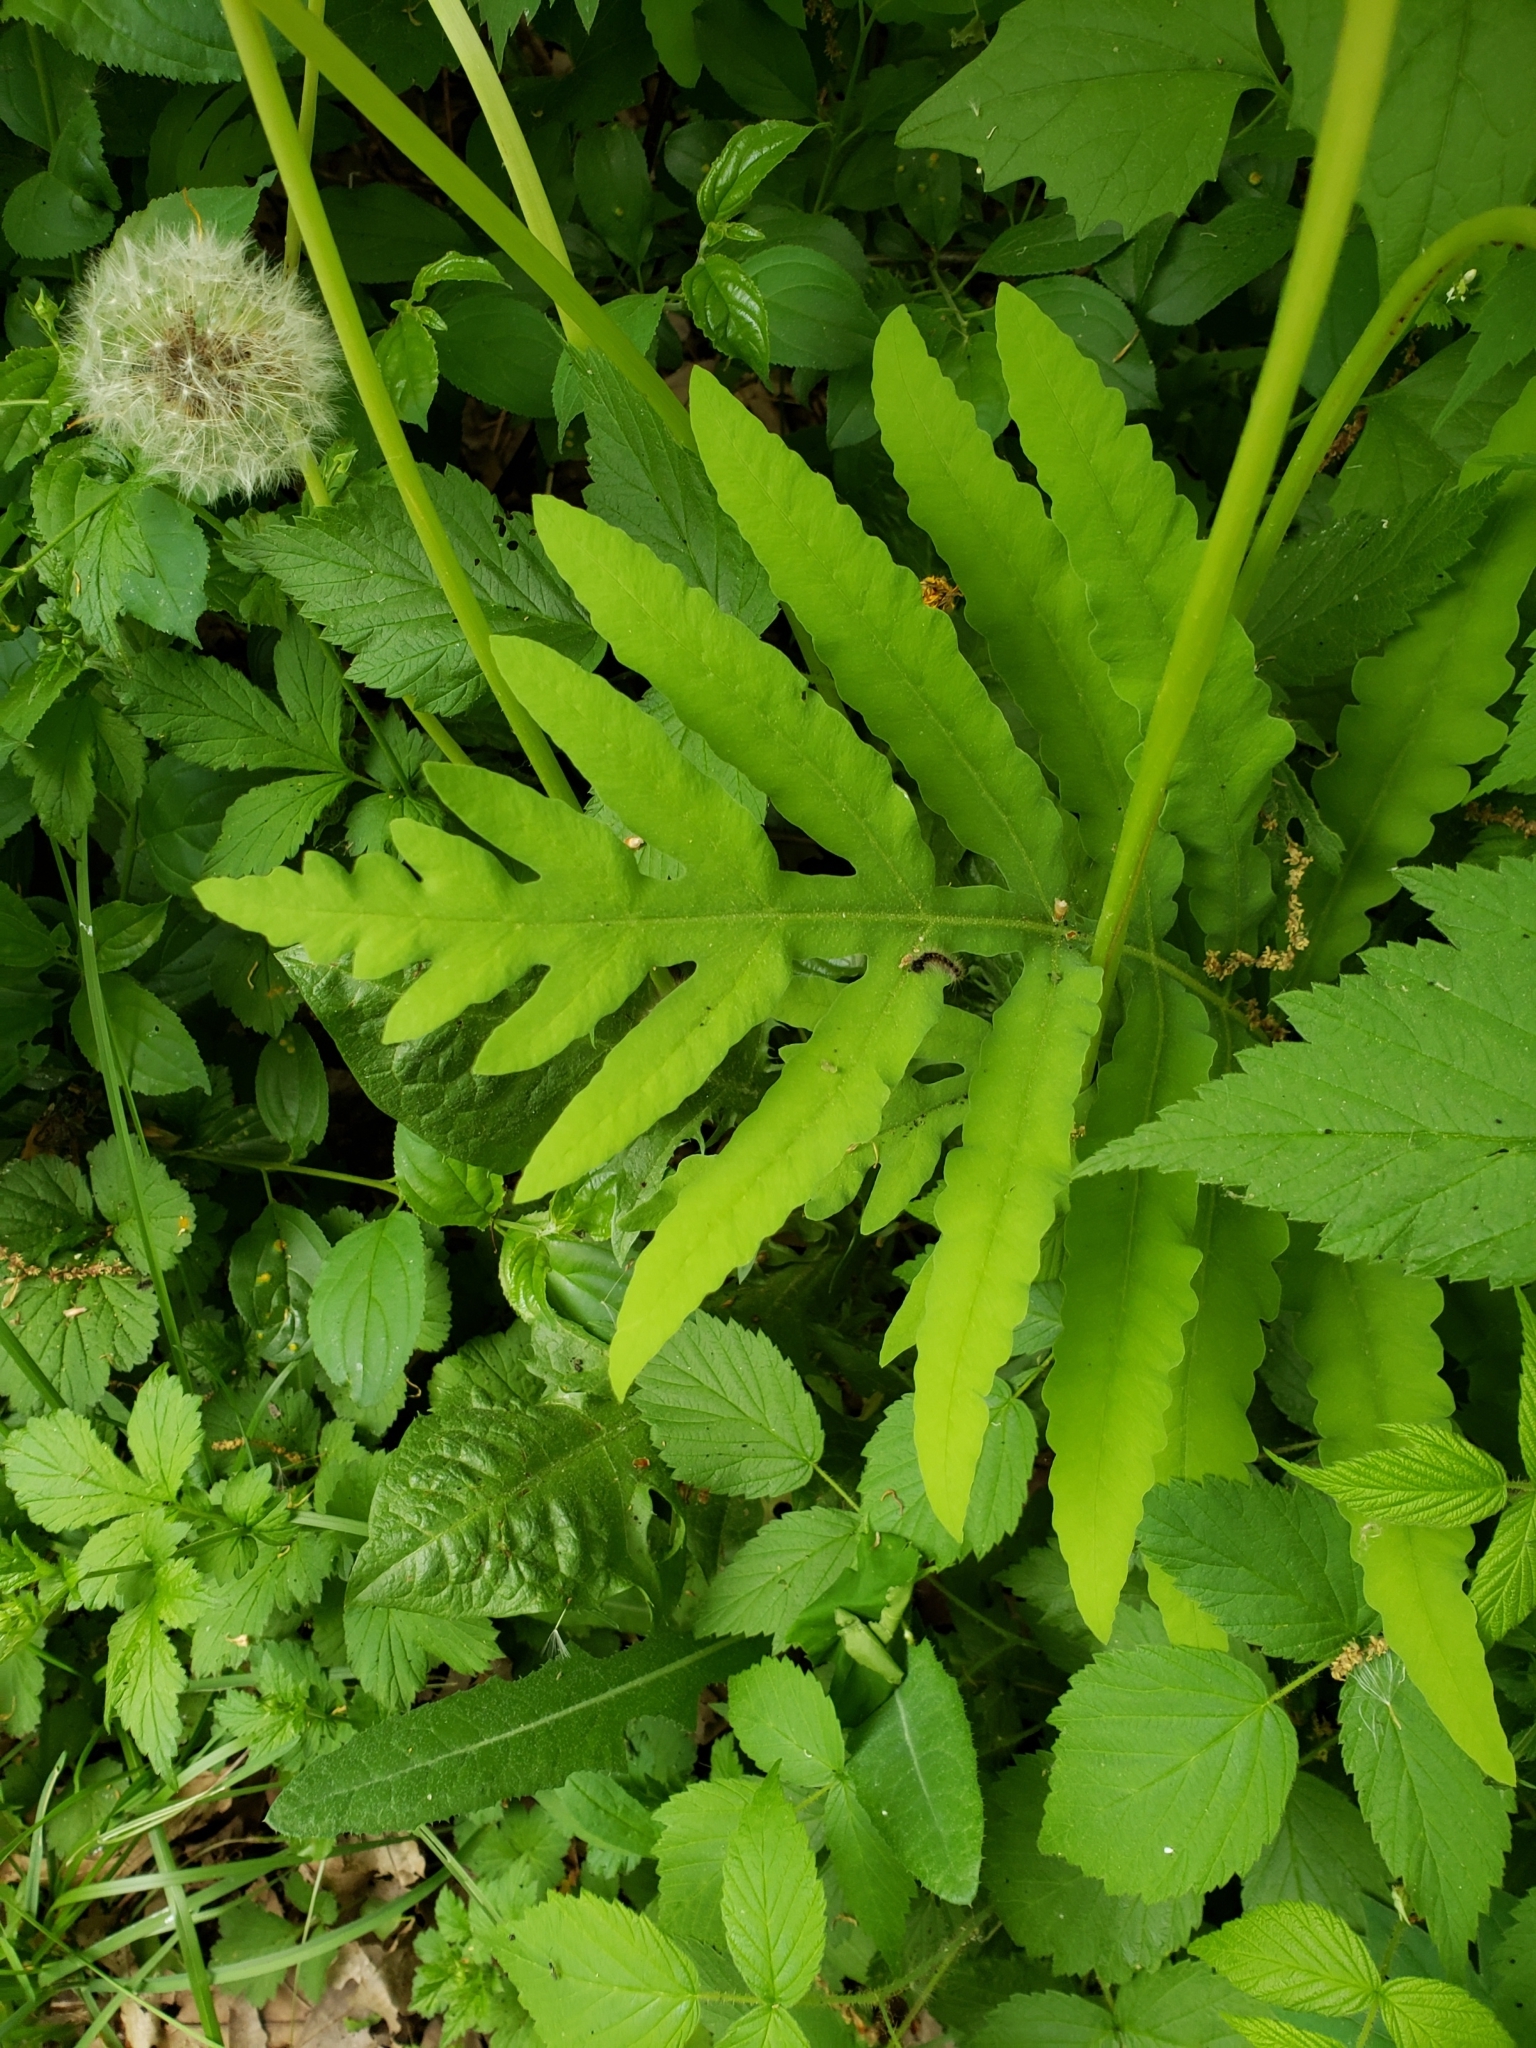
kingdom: Plantae
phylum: Tracheophyta
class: Polypodiopsida
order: Polypodiales
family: Onocleaceae
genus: Onoclea
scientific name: Onoclea sensibilis
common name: Sensitive fern
